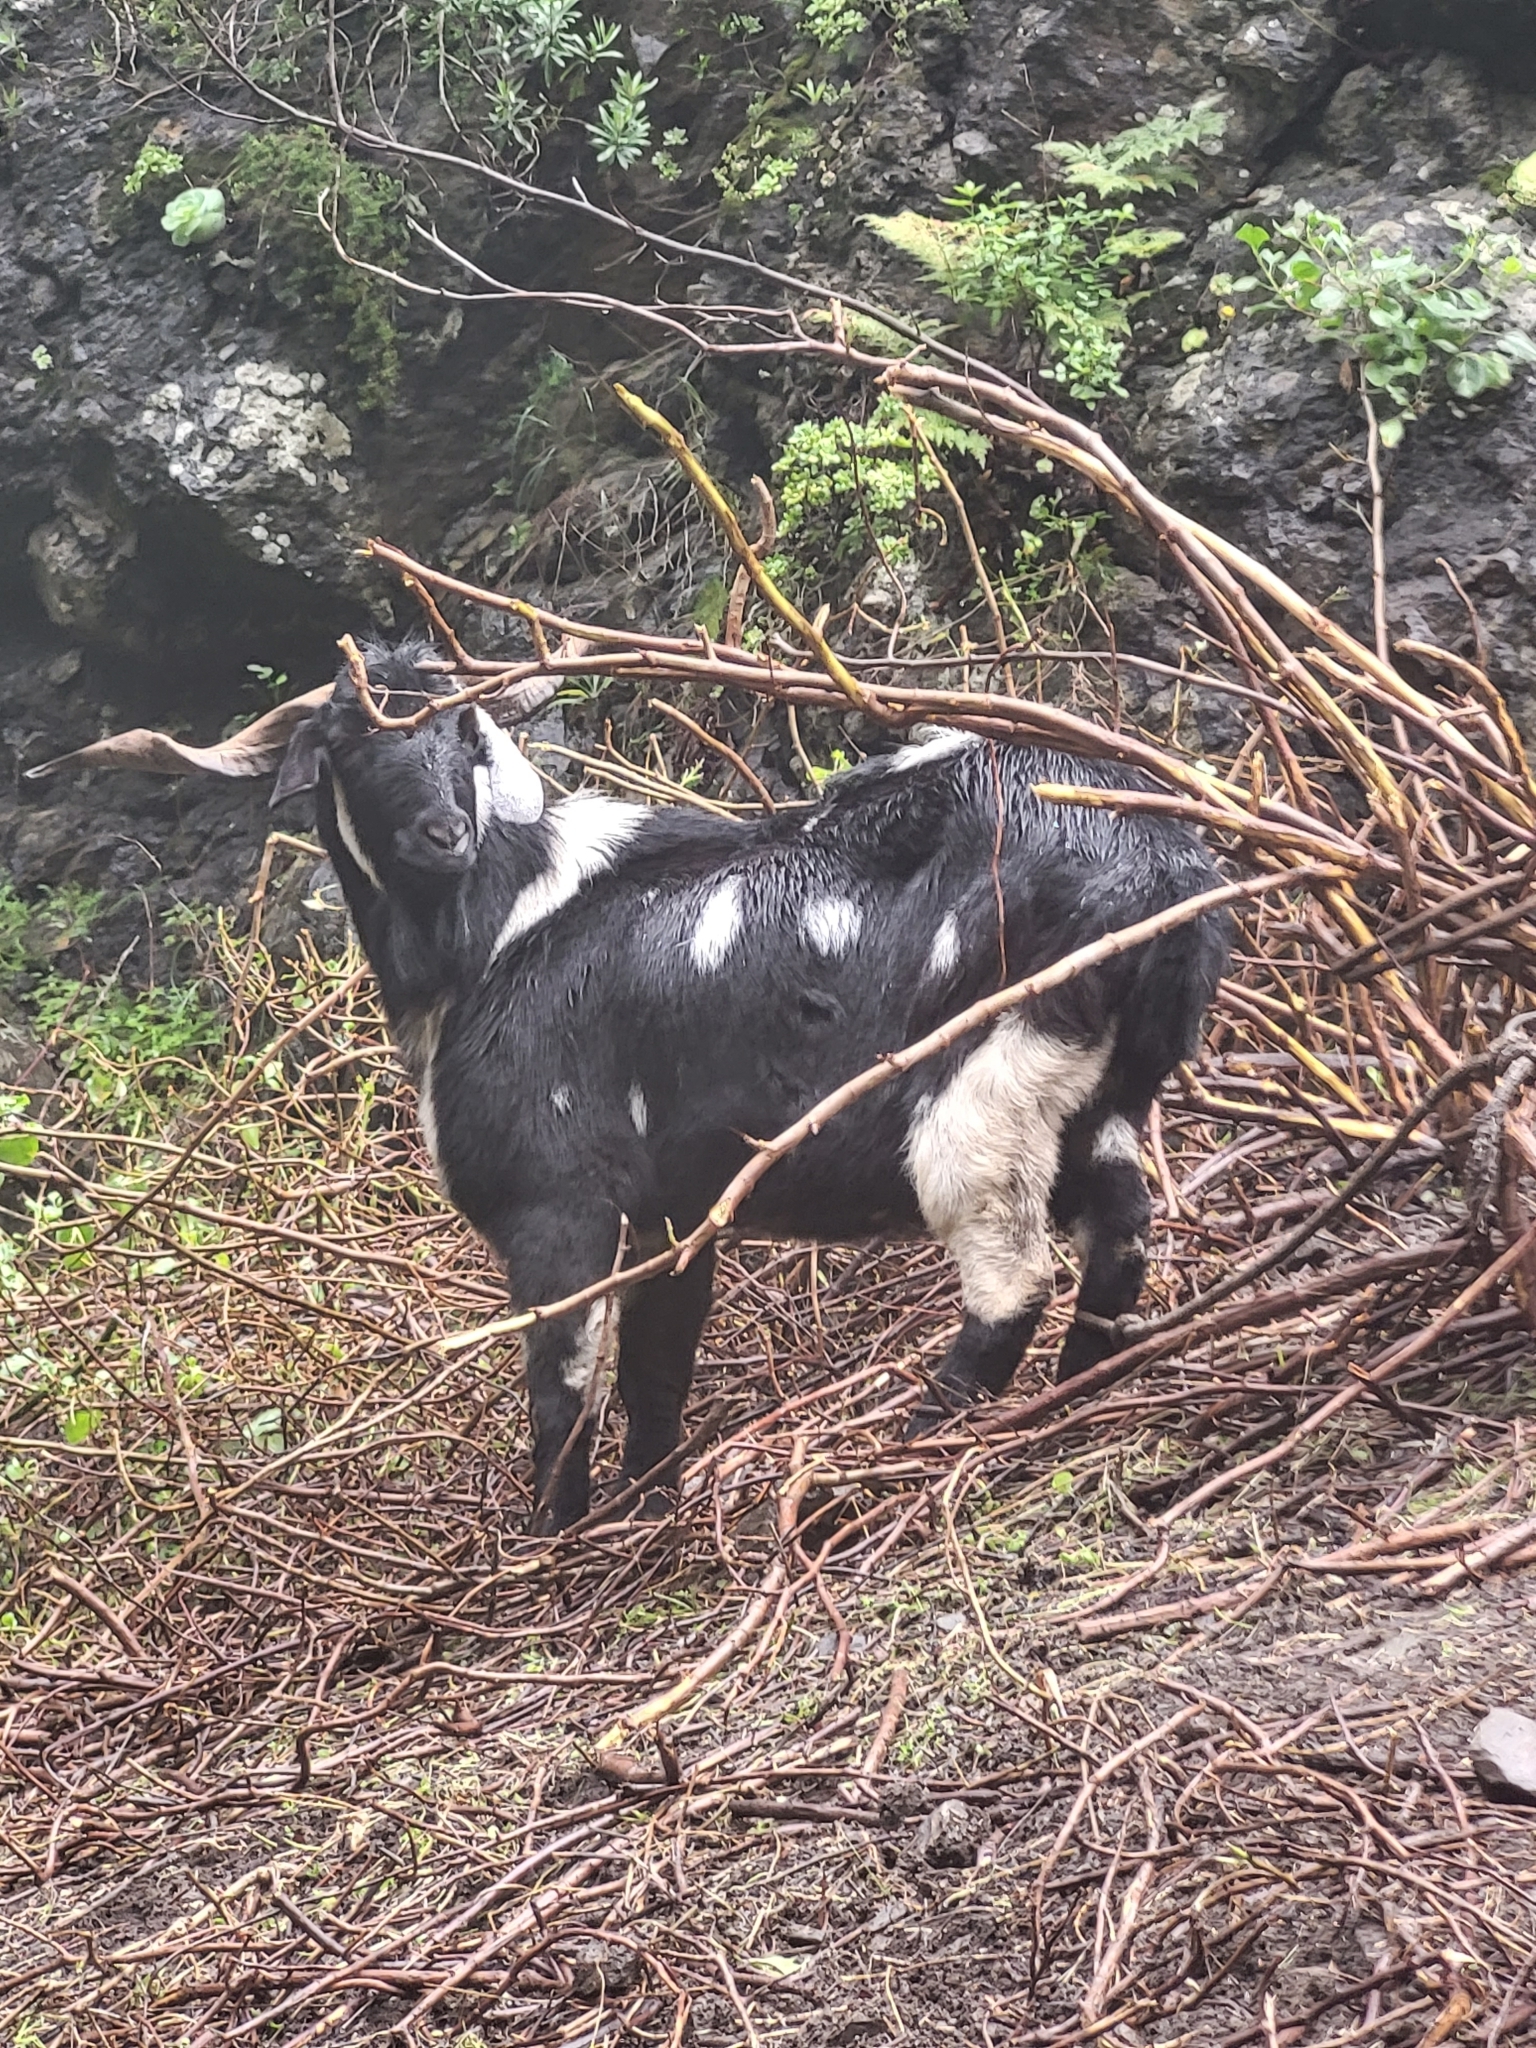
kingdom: Animalia
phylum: Chordata
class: Mammalia
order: Artiodactyla
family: Bovidae
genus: Capra
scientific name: Capra hircus
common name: Domestic goat
